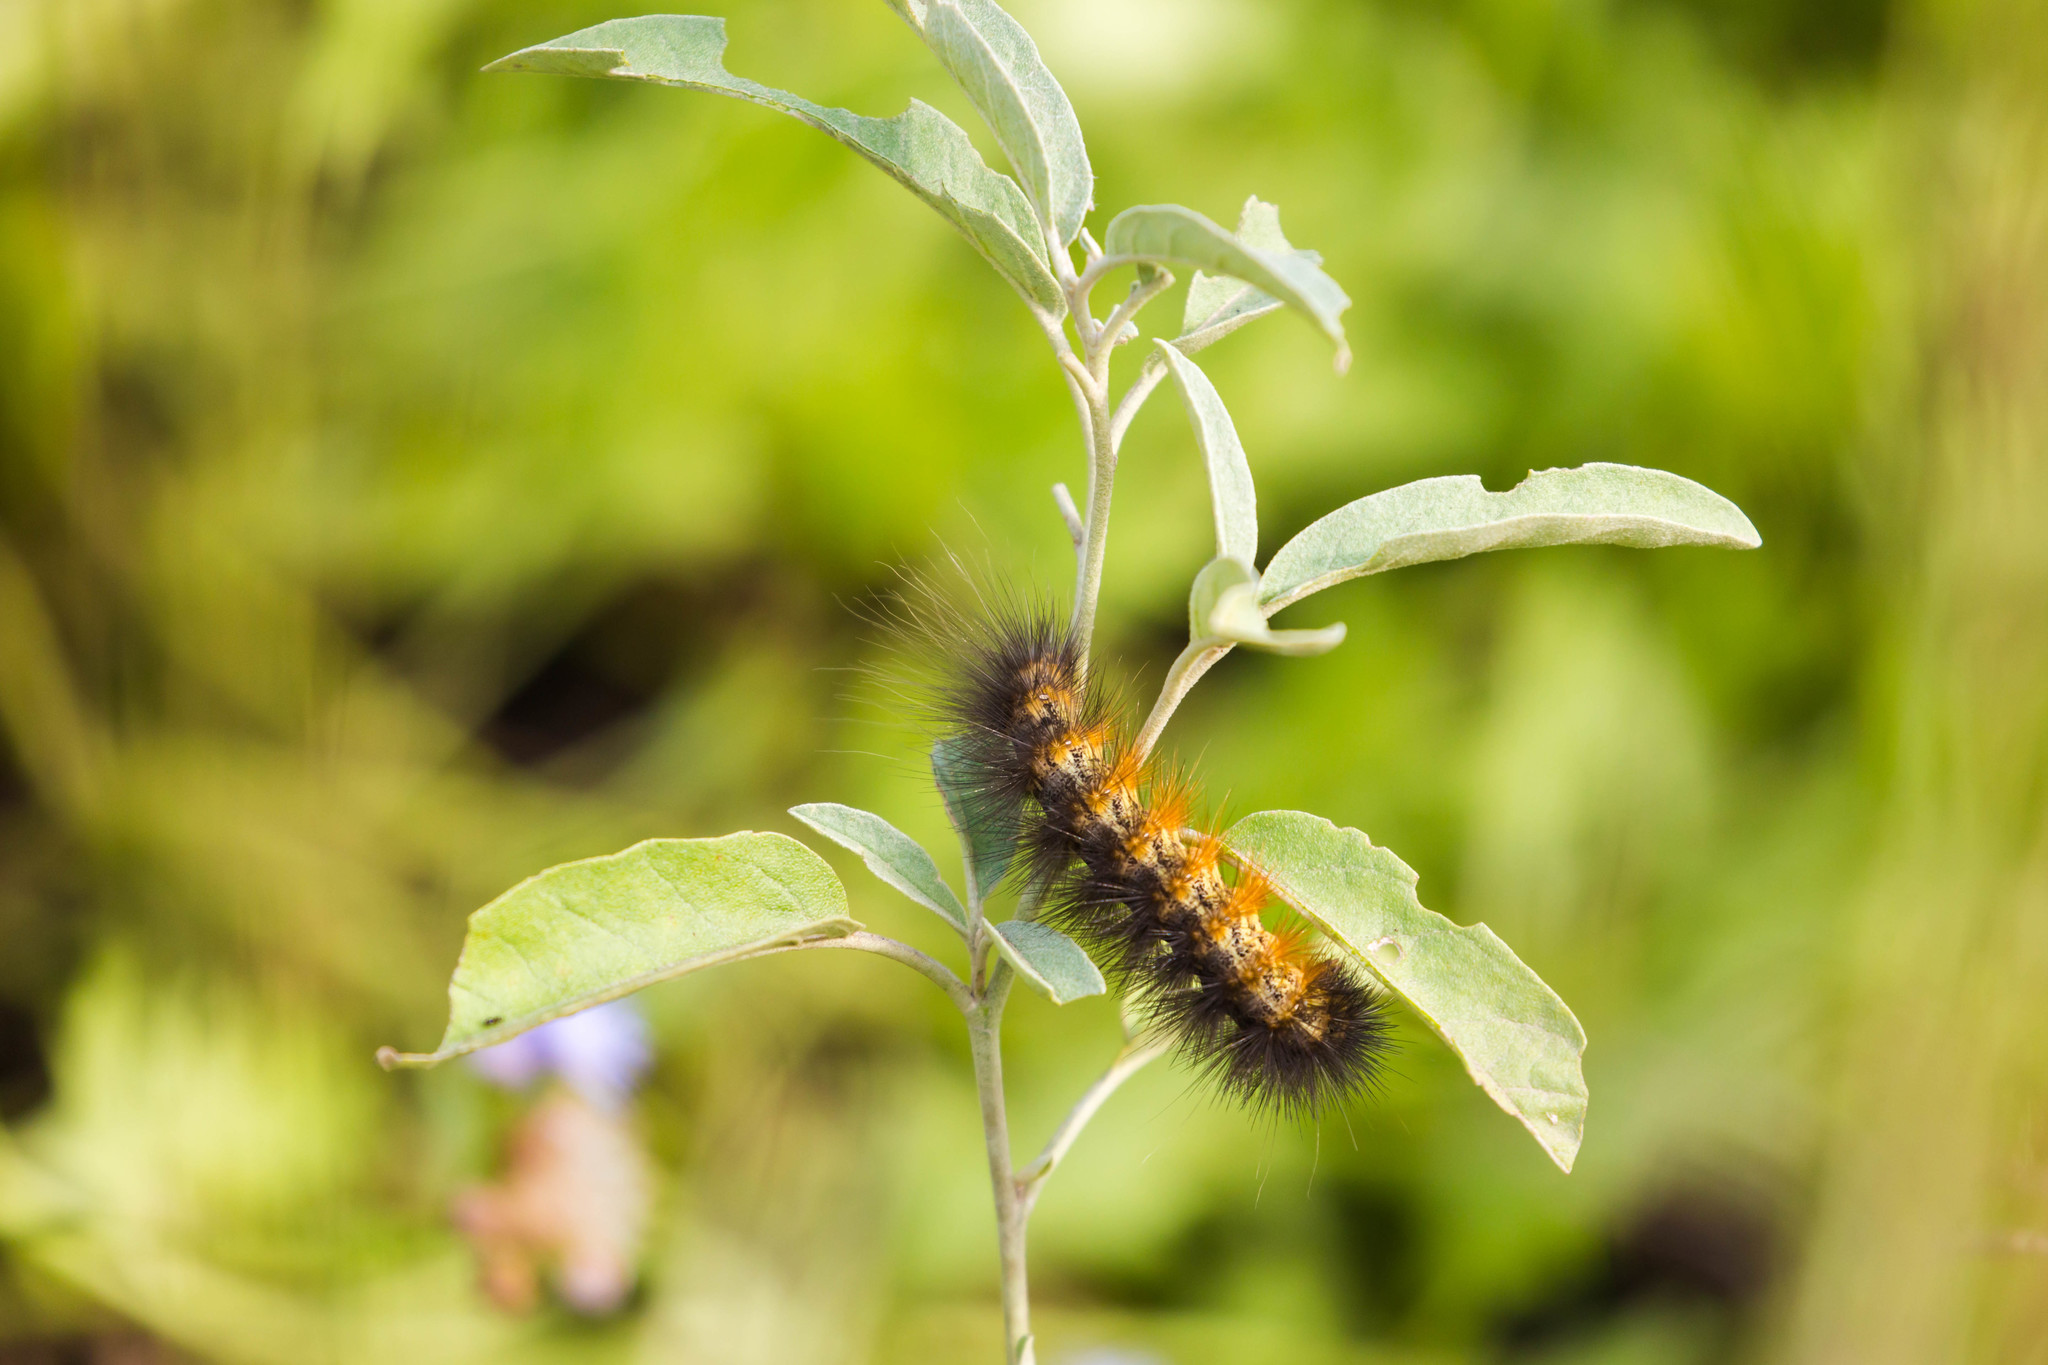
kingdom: Animalia
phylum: Arthropoda
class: Insecta
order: Lepidoptera
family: Erebidae
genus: Estigmene
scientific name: Estigmene acrea
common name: Salt marsh moth
